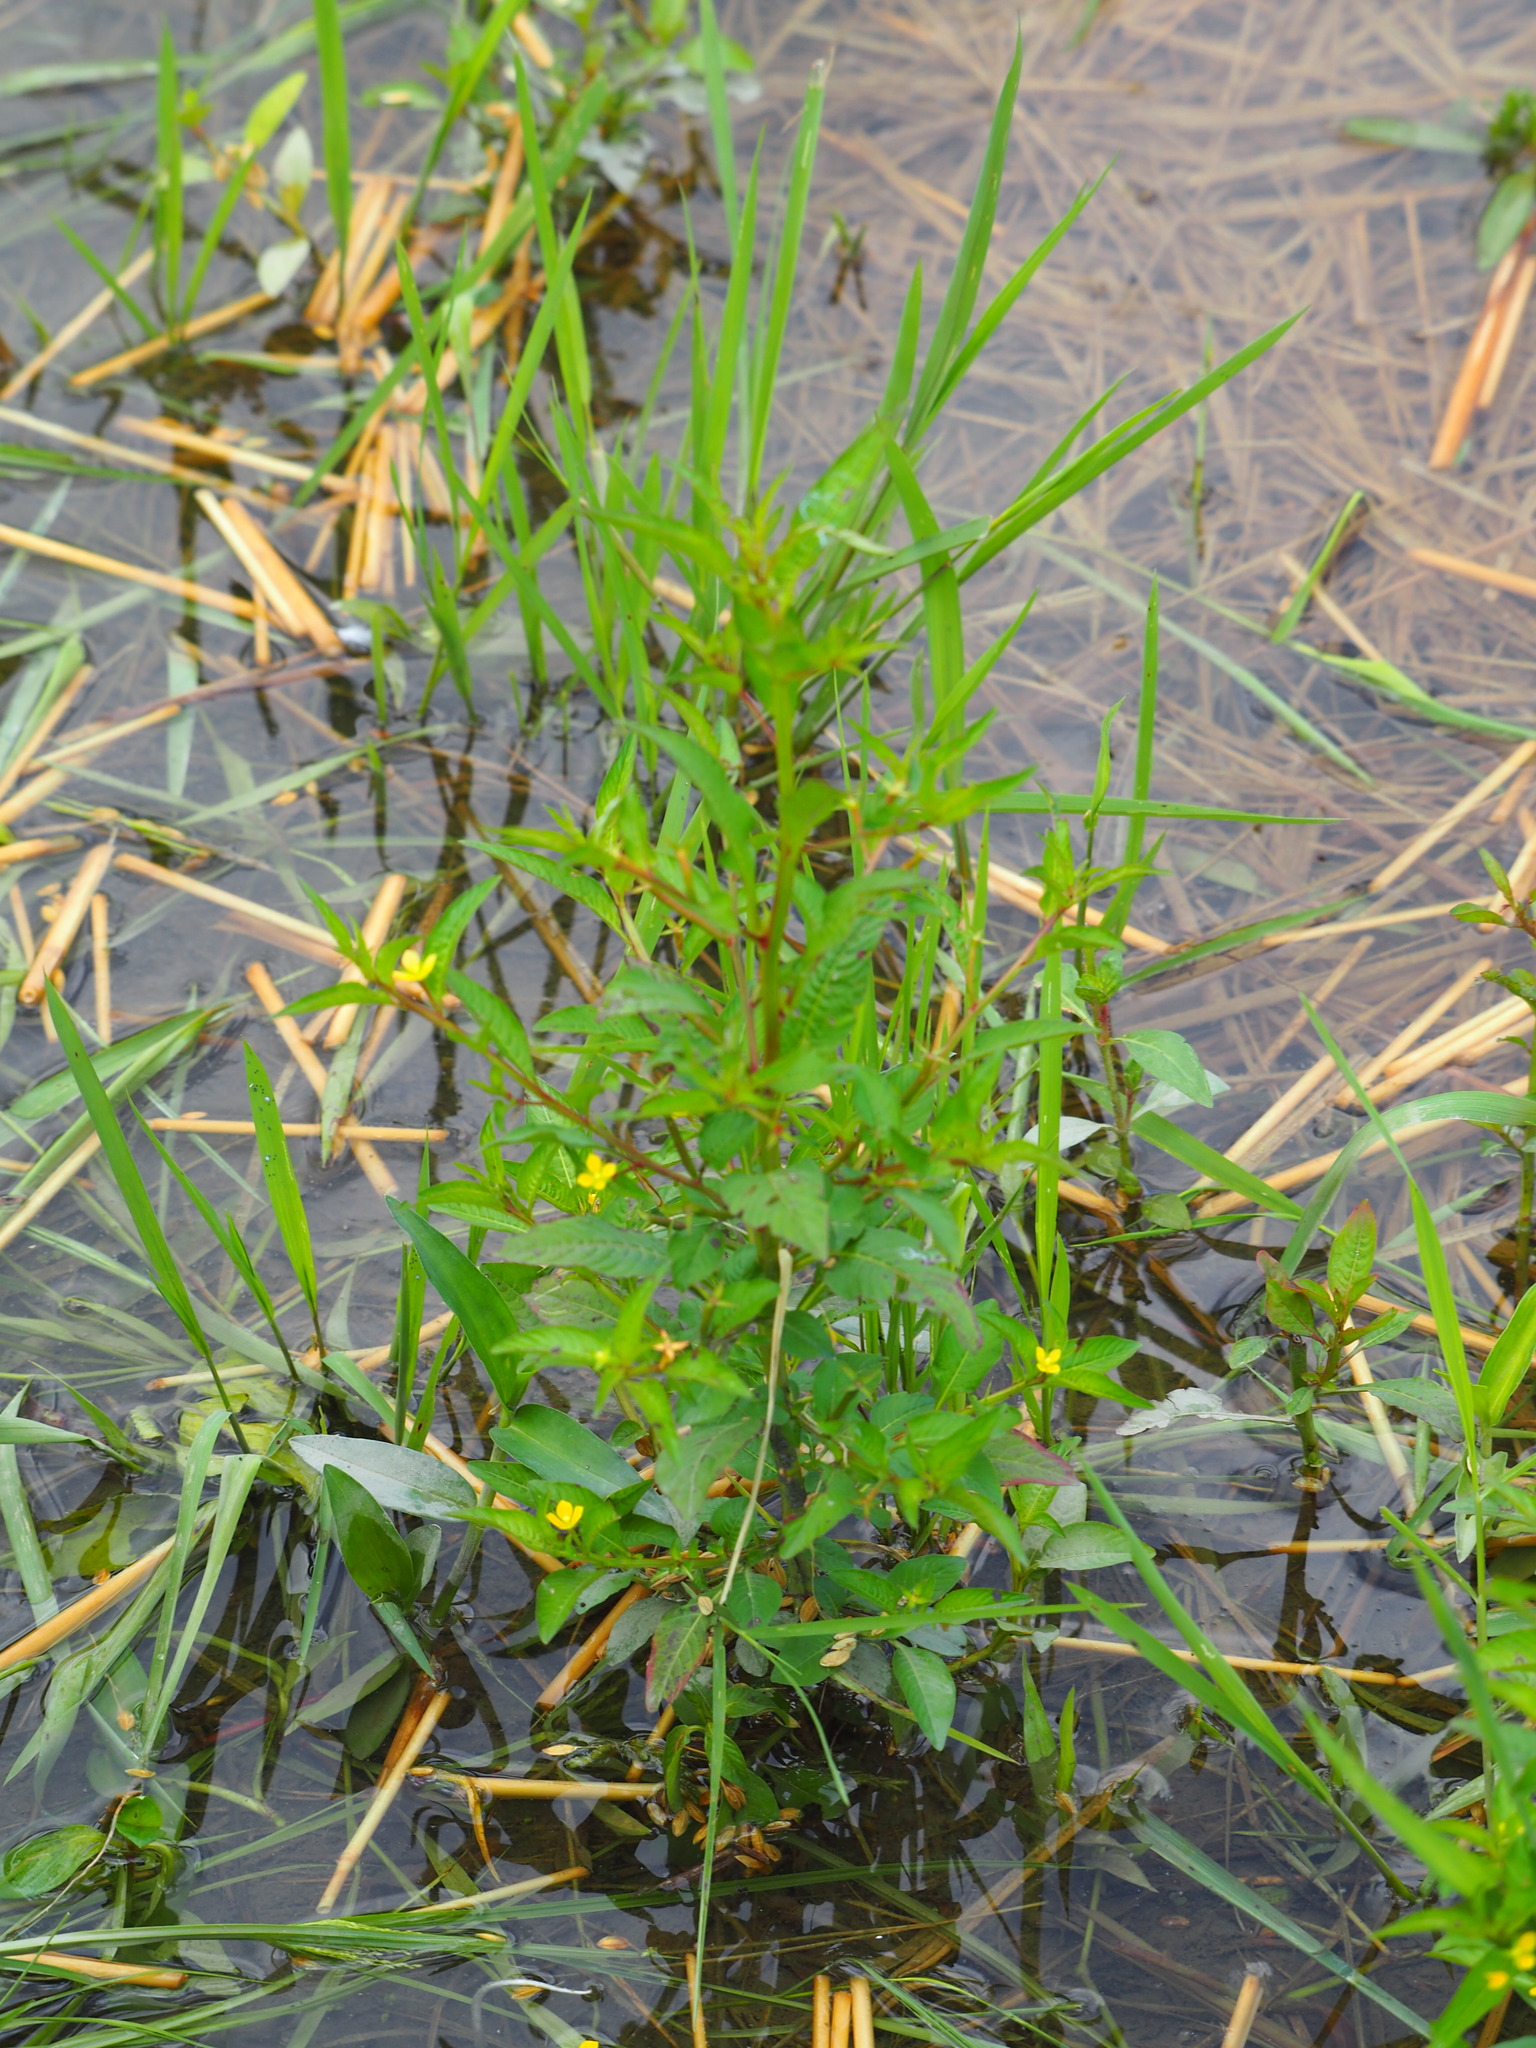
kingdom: Plantae
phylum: Tracheophyta
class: Magnoliopsida
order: Myrtales
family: Onagraceae
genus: Ludwigia
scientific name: Ludwigia hyssopifolia
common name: Linear leaf water primrose
